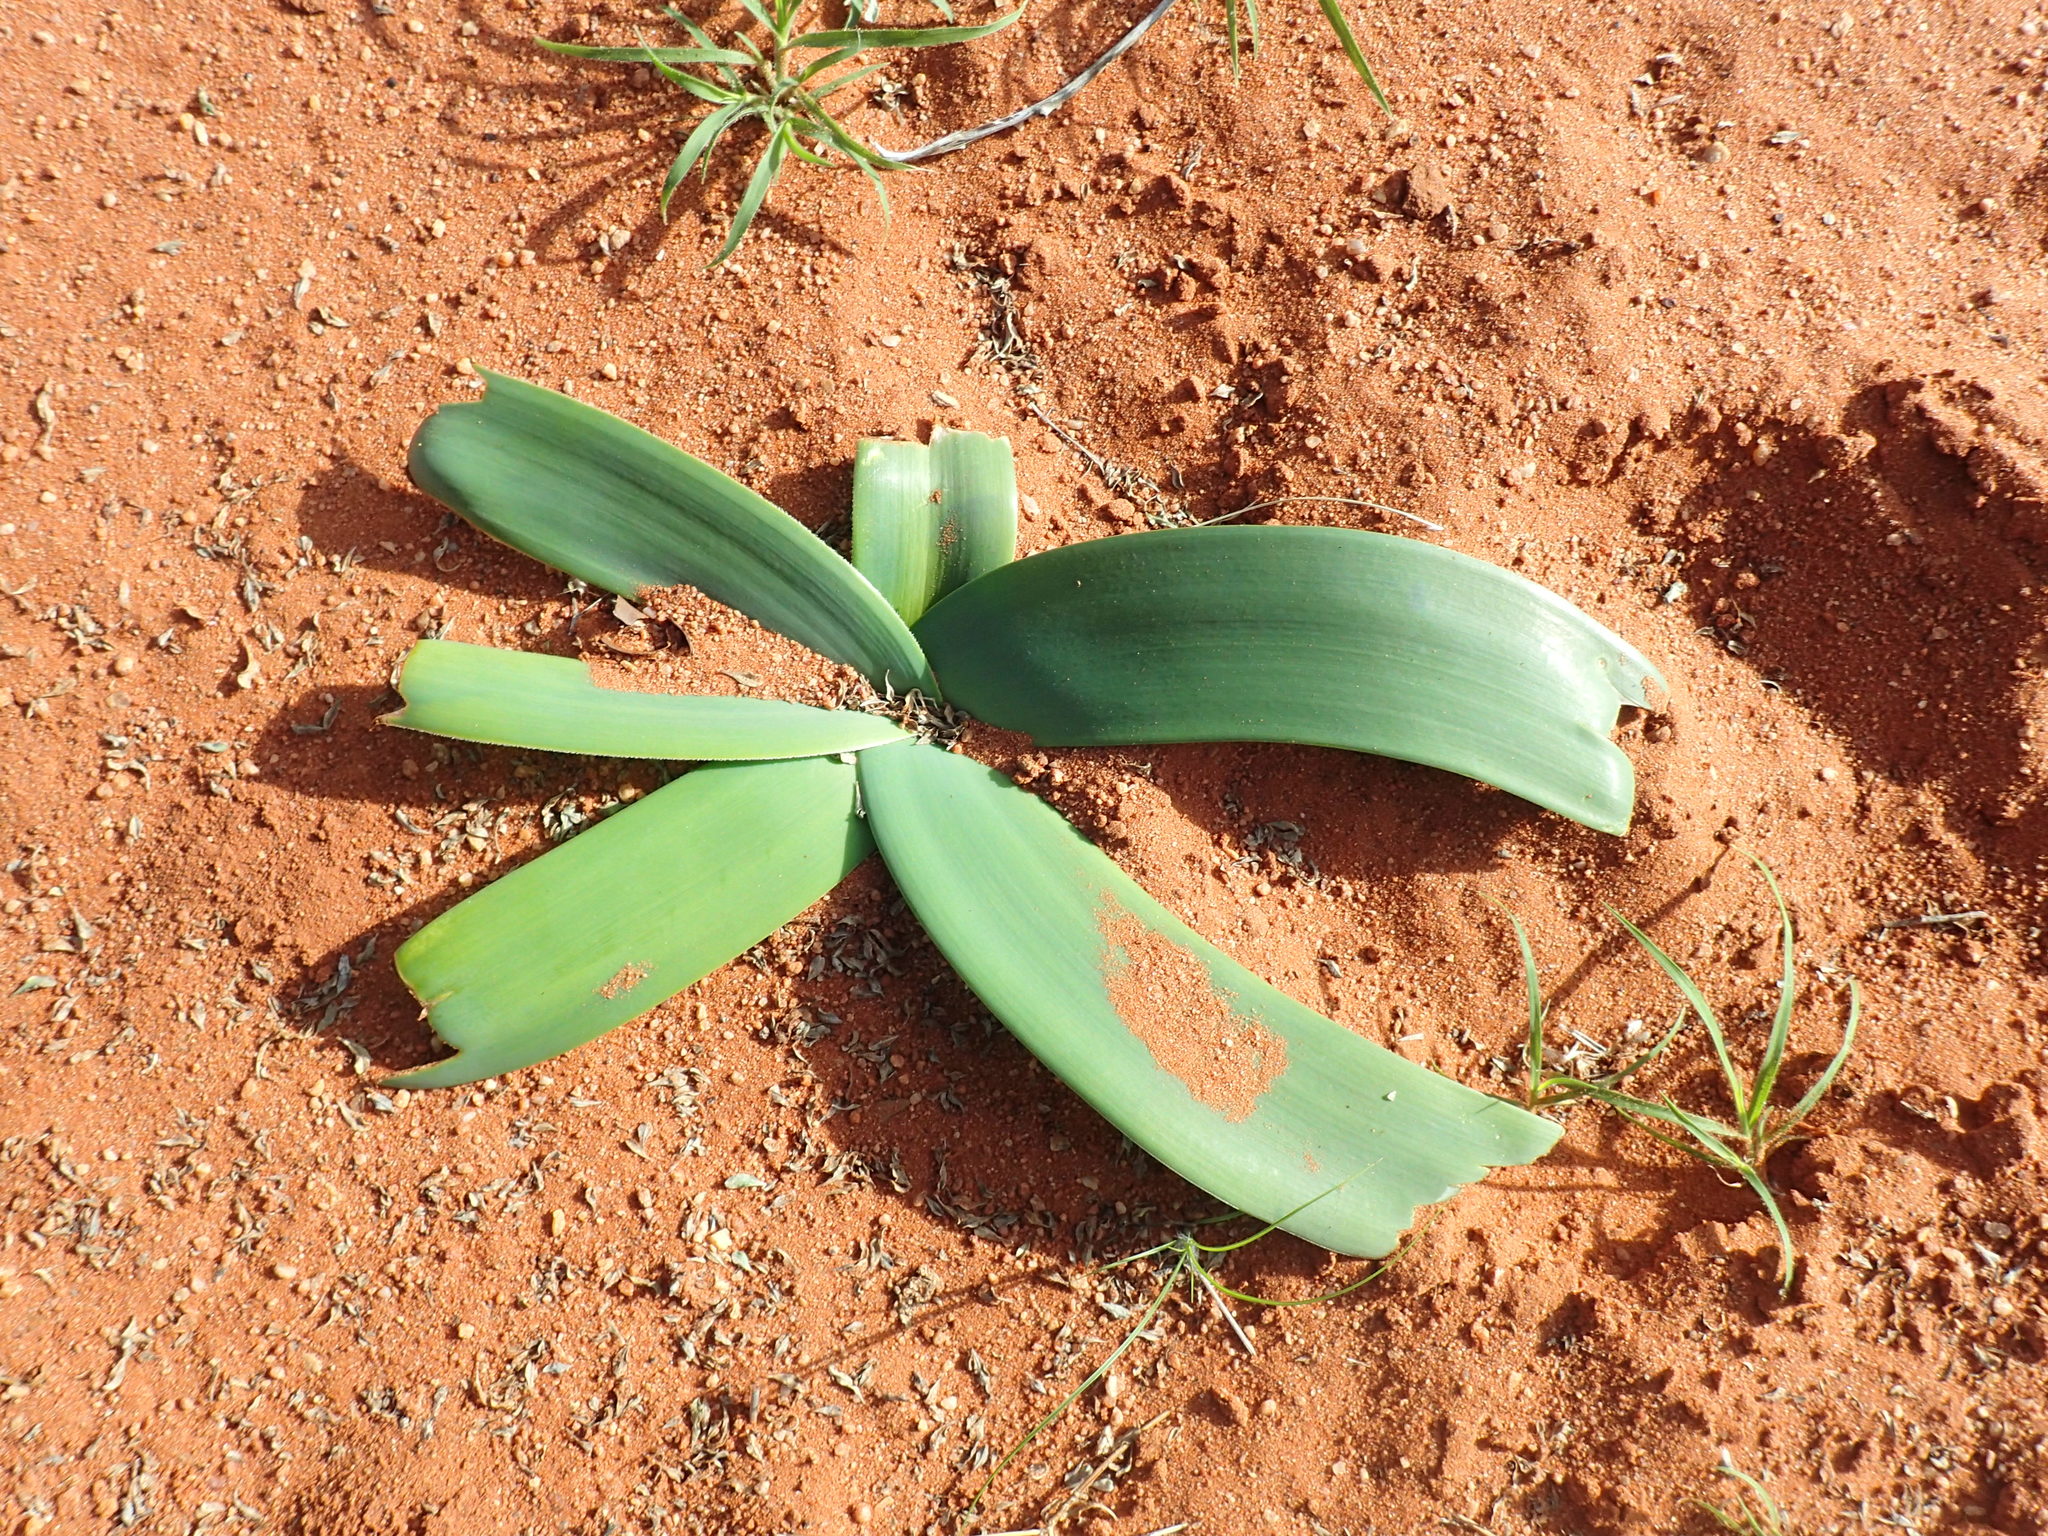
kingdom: Plantae
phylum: Tracheophyta
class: Liliopsida
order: Asparagales
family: Amaryllidaceae
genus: Ammocharis
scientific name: Ammocharis coranica
